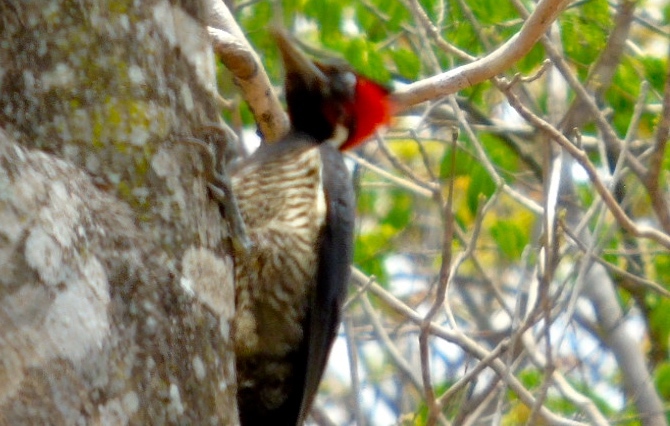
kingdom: Animalia
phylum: Chordata
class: Aves
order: Piciformes
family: Picidae
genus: Dryocopus
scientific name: Dryocopus lineatus
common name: Lineated woodpecker
